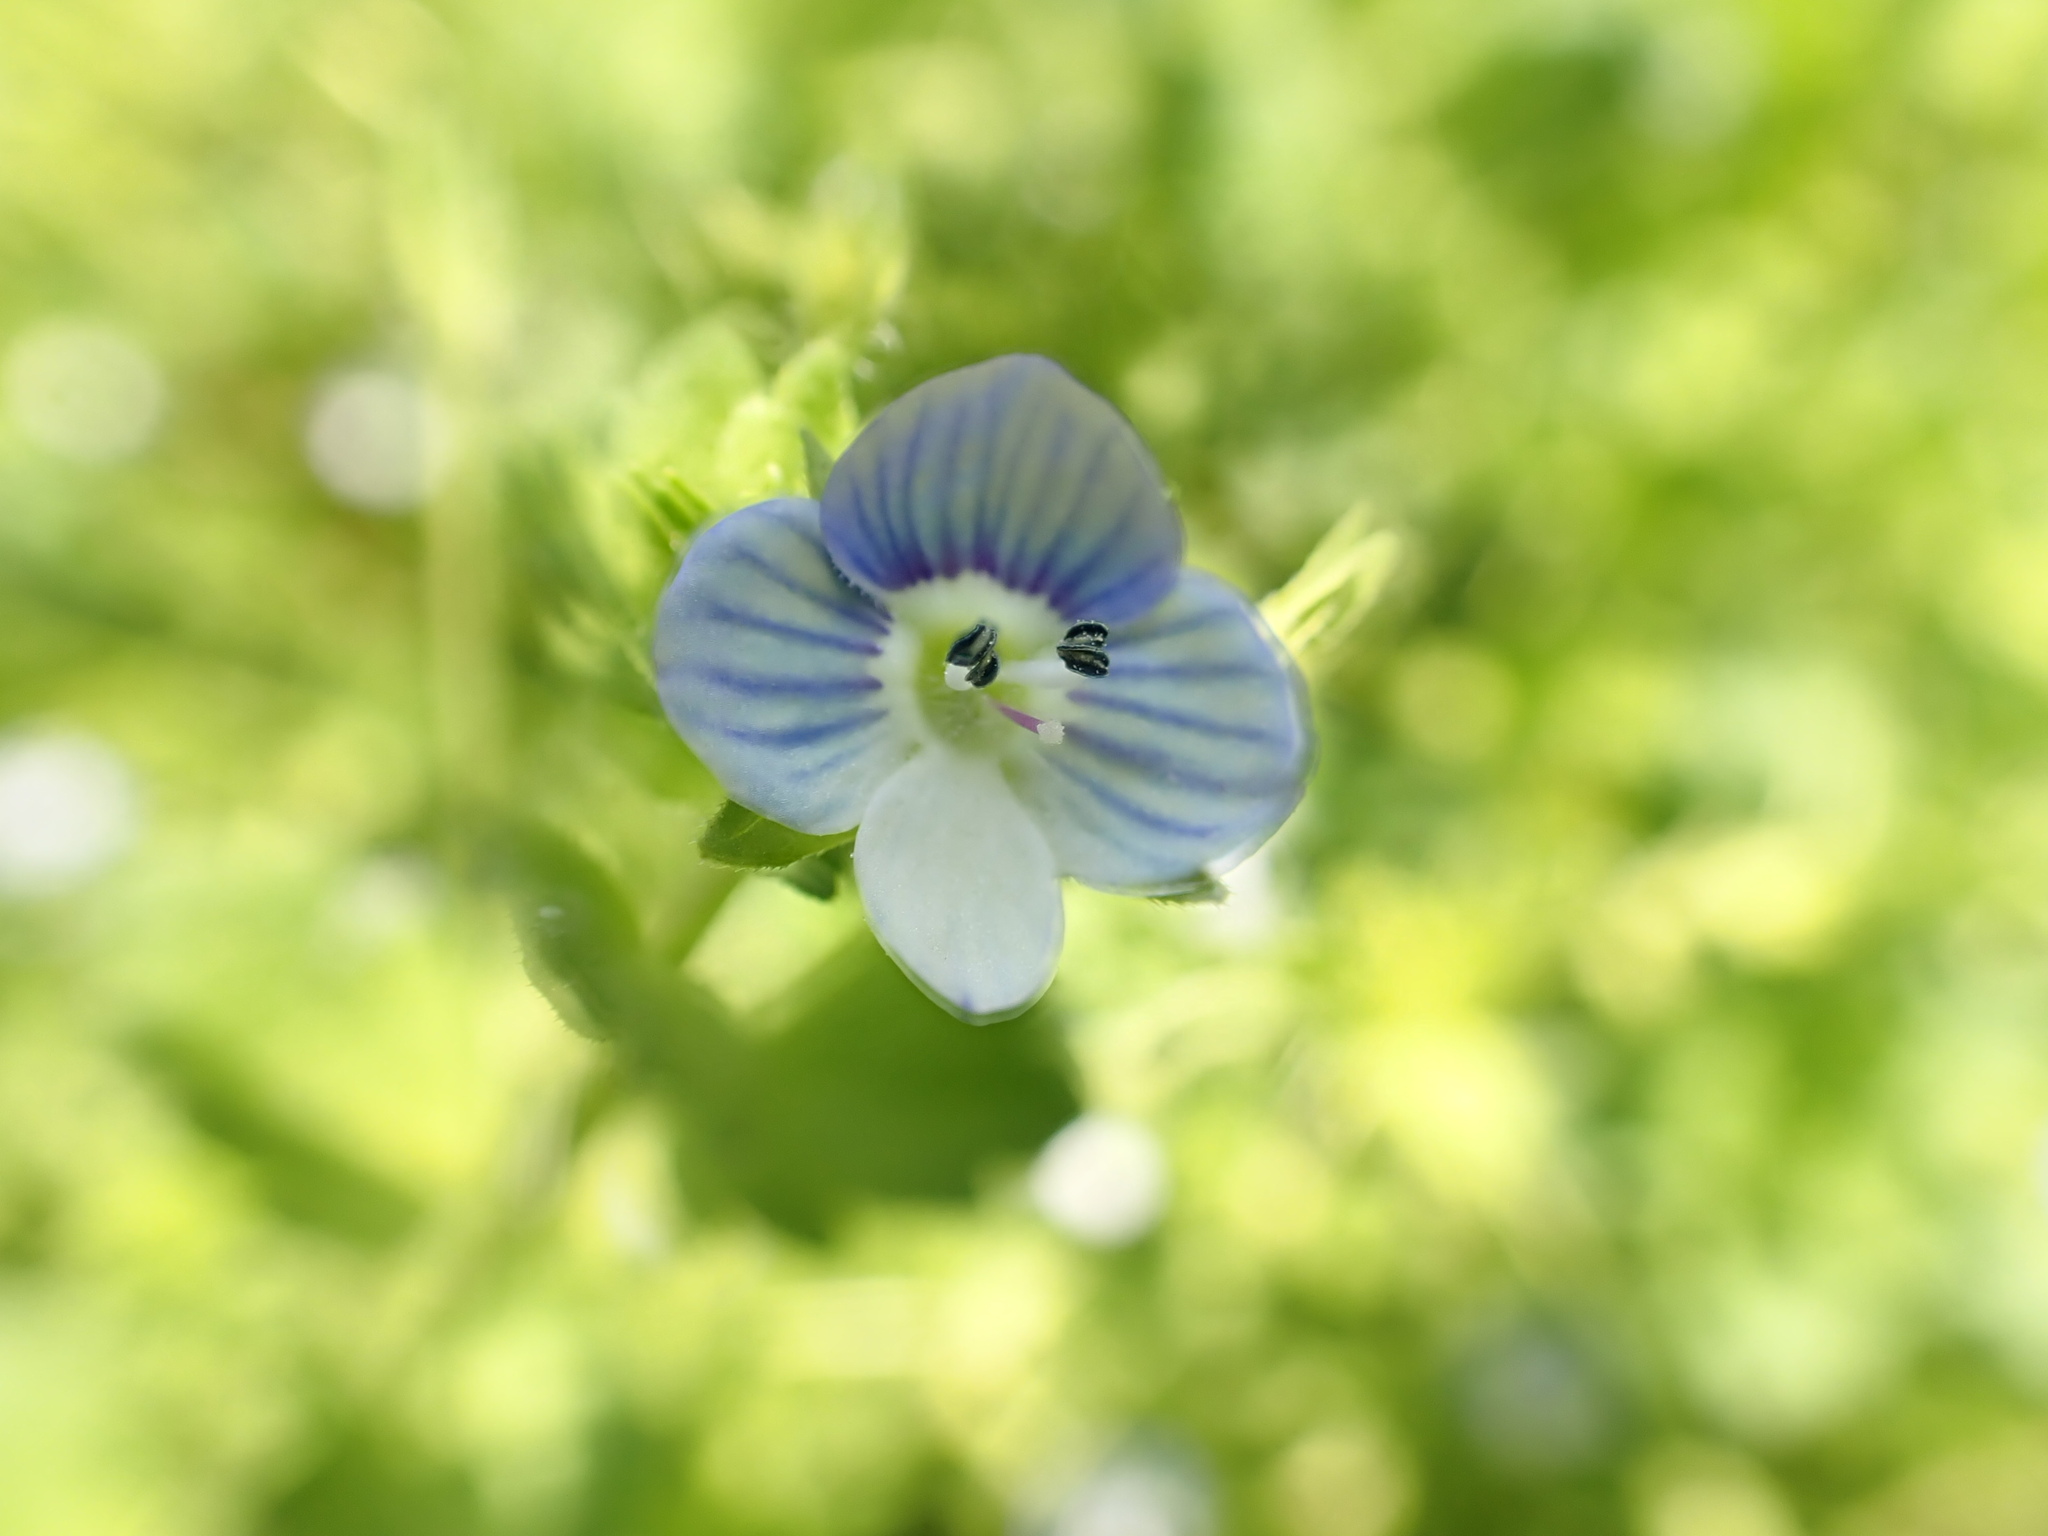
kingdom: Plantae
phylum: Tracheophyta
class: Magnoliopsida
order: Lamiales
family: Plantaginaceae
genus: Veronica
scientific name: Veronica persica
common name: Common field-speedwell
